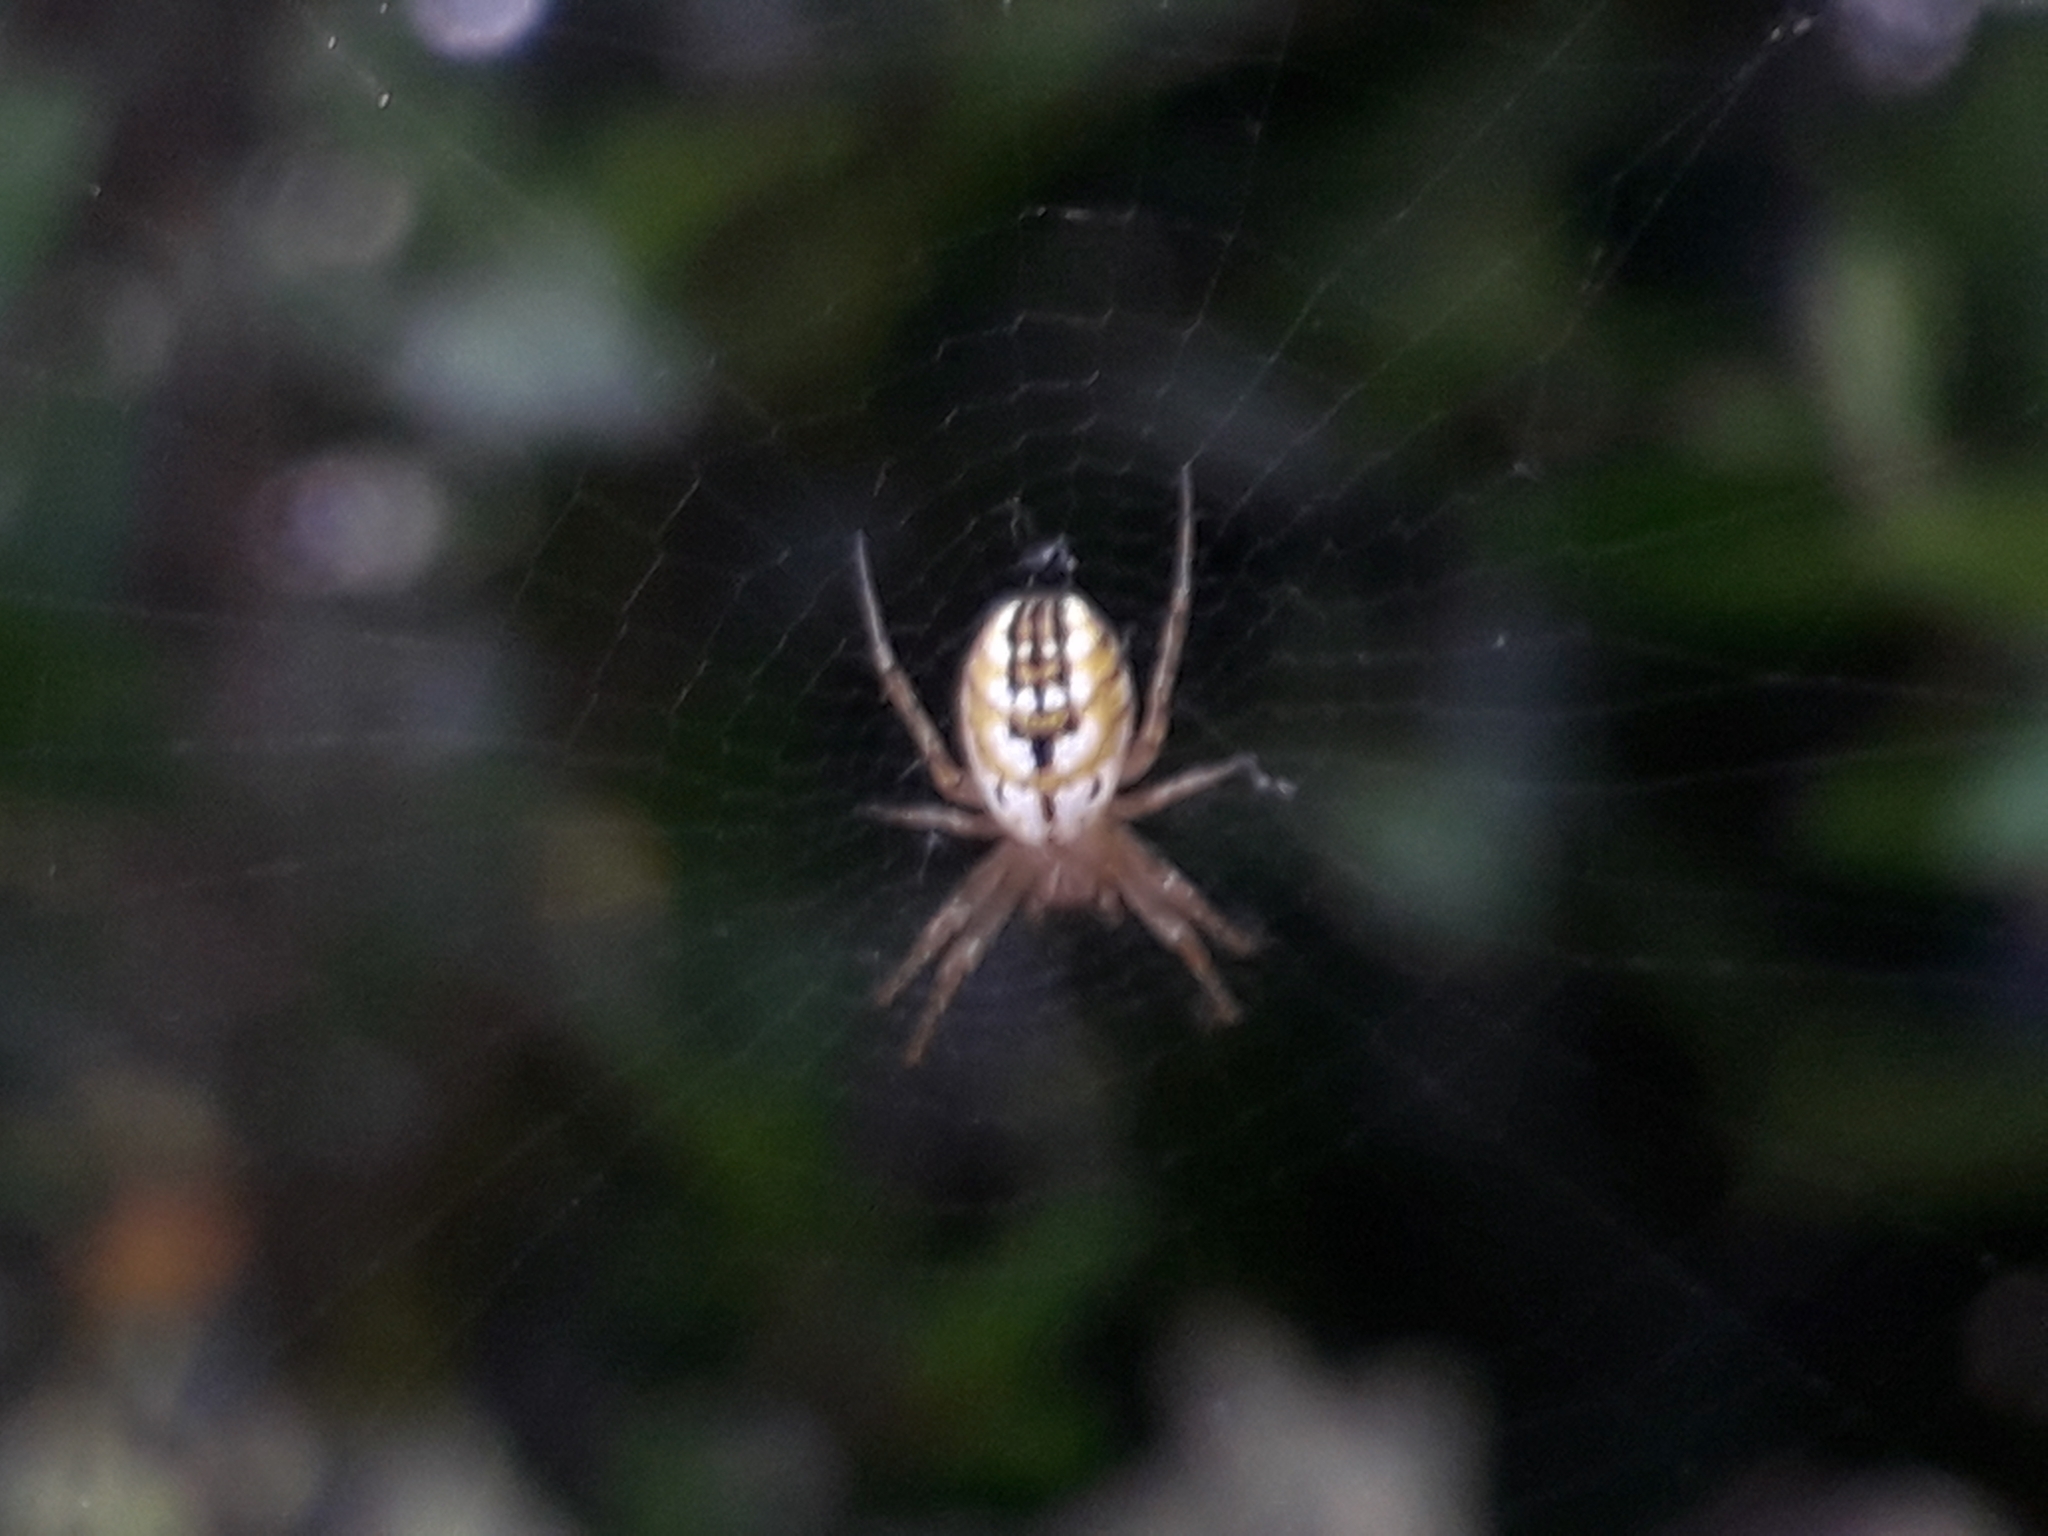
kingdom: Animalia
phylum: Arthropoda
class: Arachnida
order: Araneae
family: Araneidae
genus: Mangora
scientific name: Mangora acalypha
